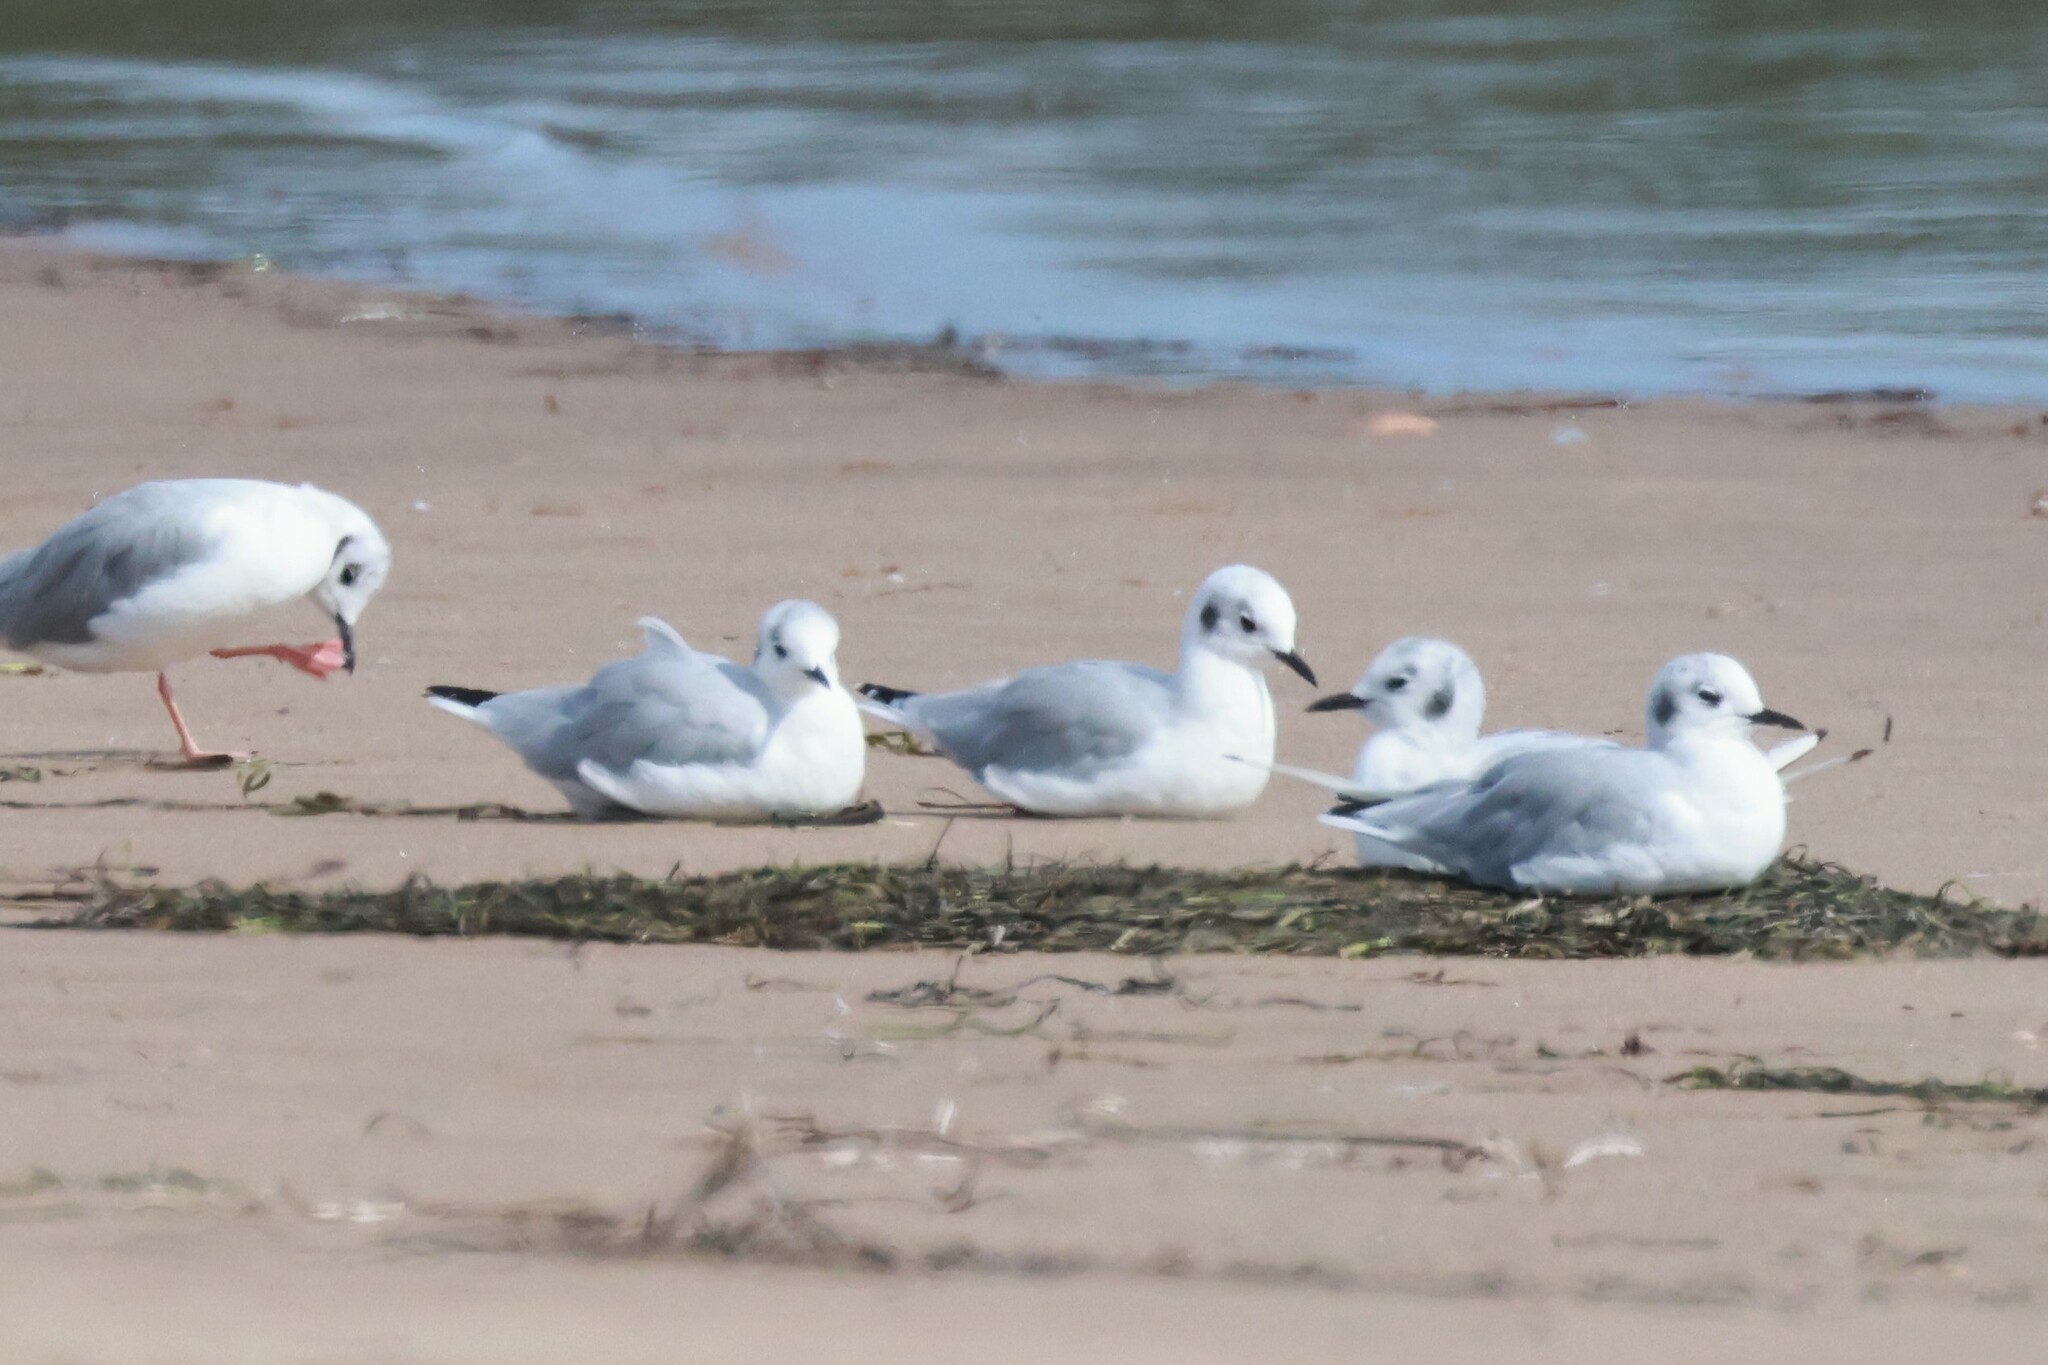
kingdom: Animalia
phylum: Chordata
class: Aves
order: Charadriiformes
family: Laridae
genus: Chroicocephalus
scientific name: Chroicocephalus philadelphia
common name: Bonaparte's gull
